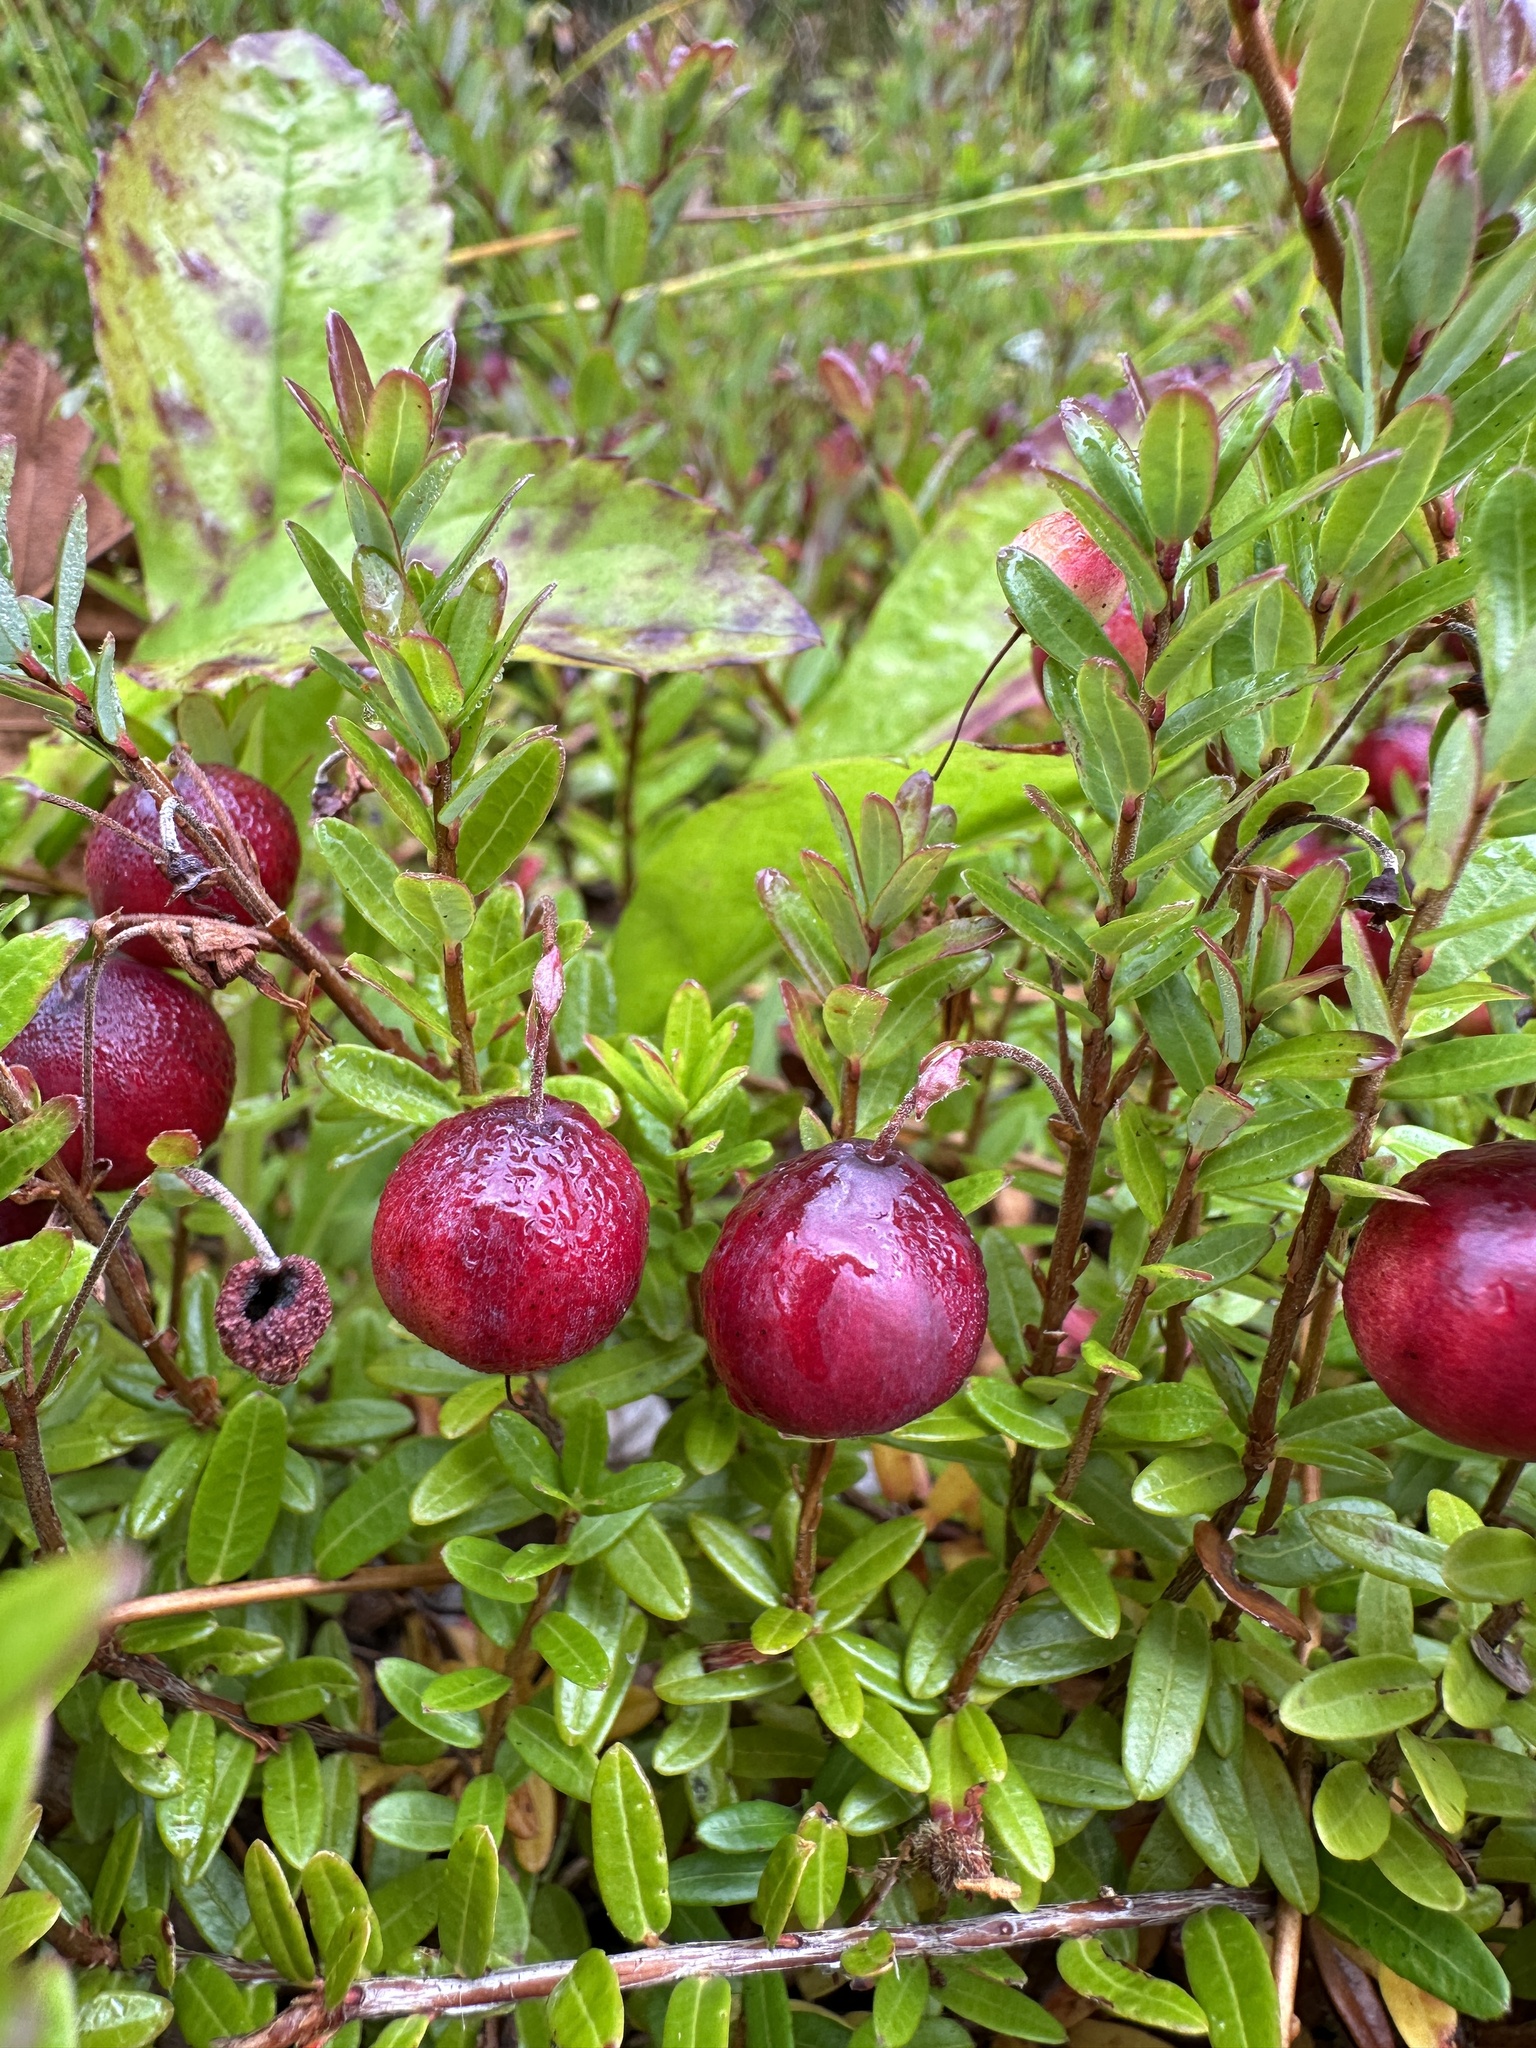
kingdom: Plantae
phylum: Tracheophyta
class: Magnoliopsida
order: Ericales
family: Ericaceae
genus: Vaccinium
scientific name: Vaccinium macrocarpon
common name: American cranberry
